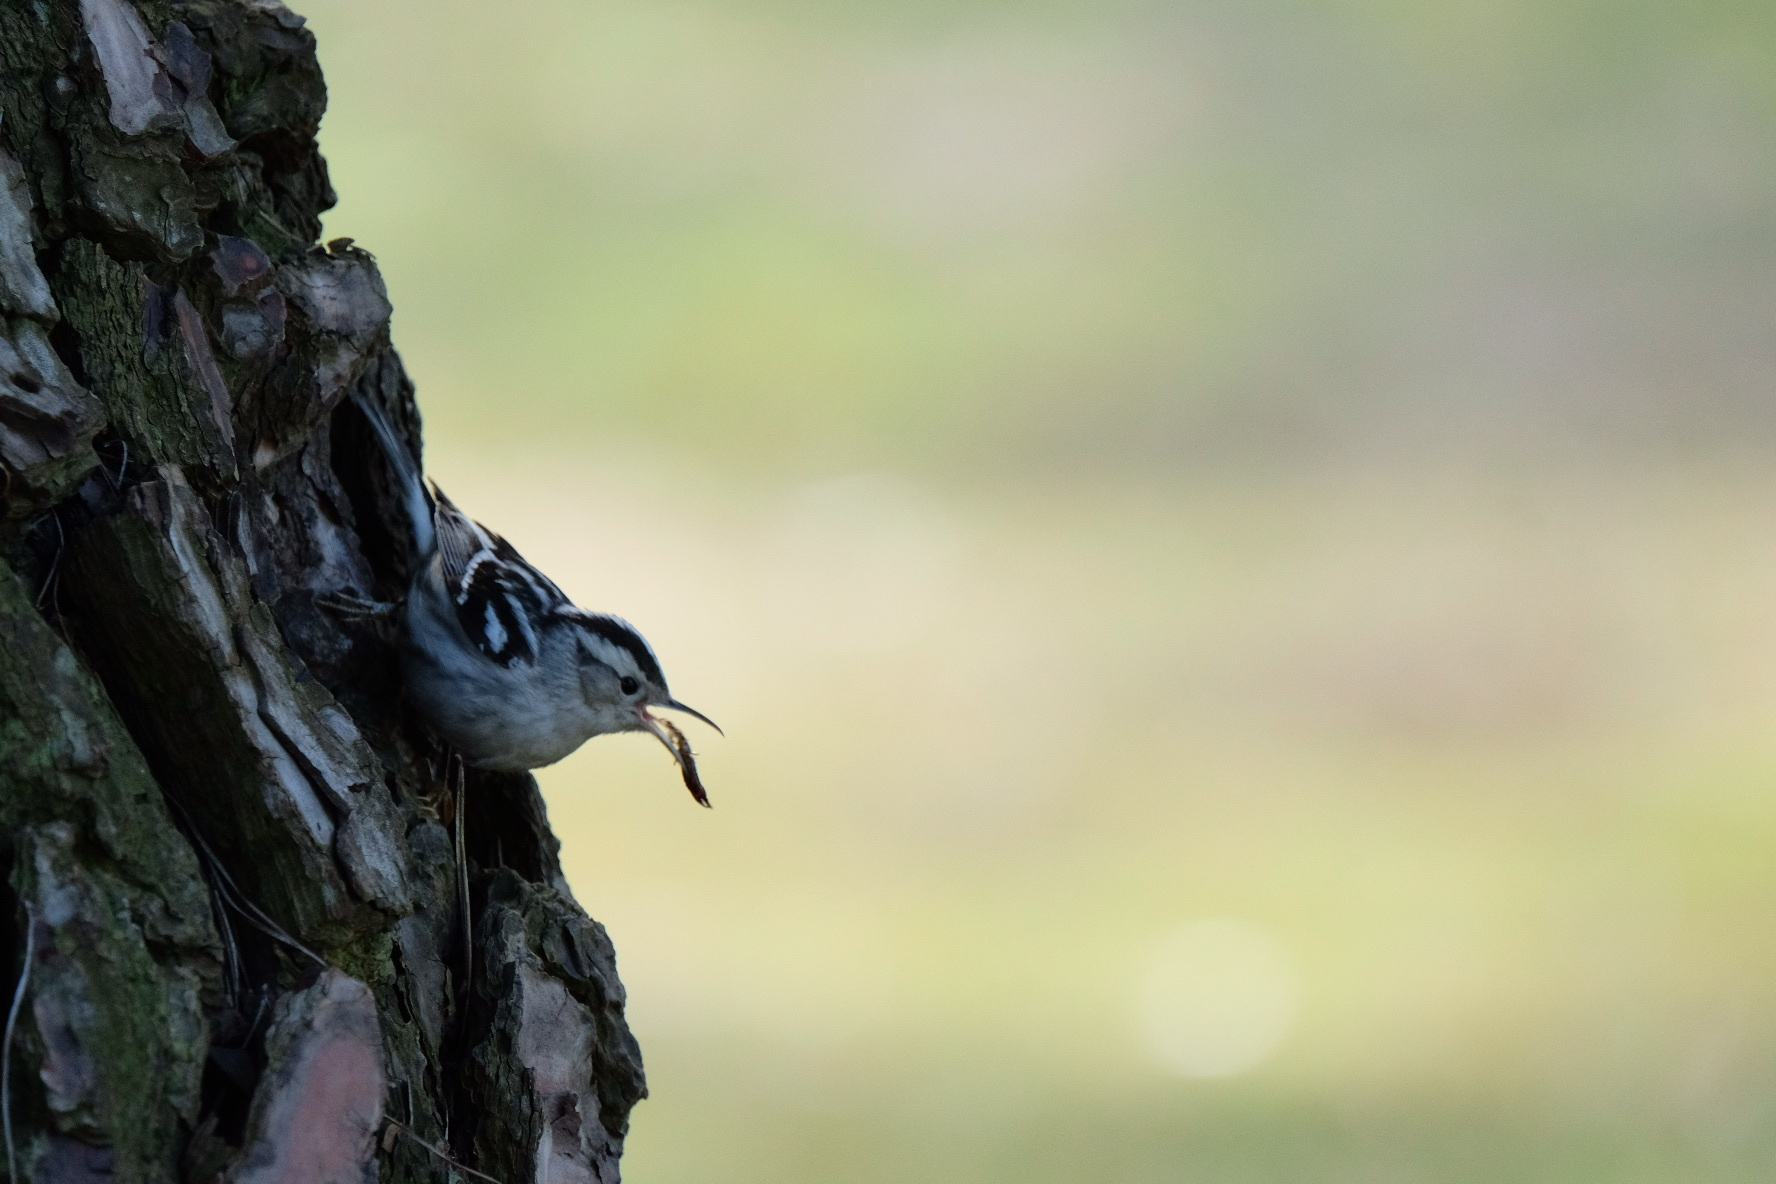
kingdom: Animalia
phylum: Chordata
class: Aves
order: Passeriformes
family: Parulidae
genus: Mniotilta
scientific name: Mniotilta varia
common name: Black-and-white warbler
